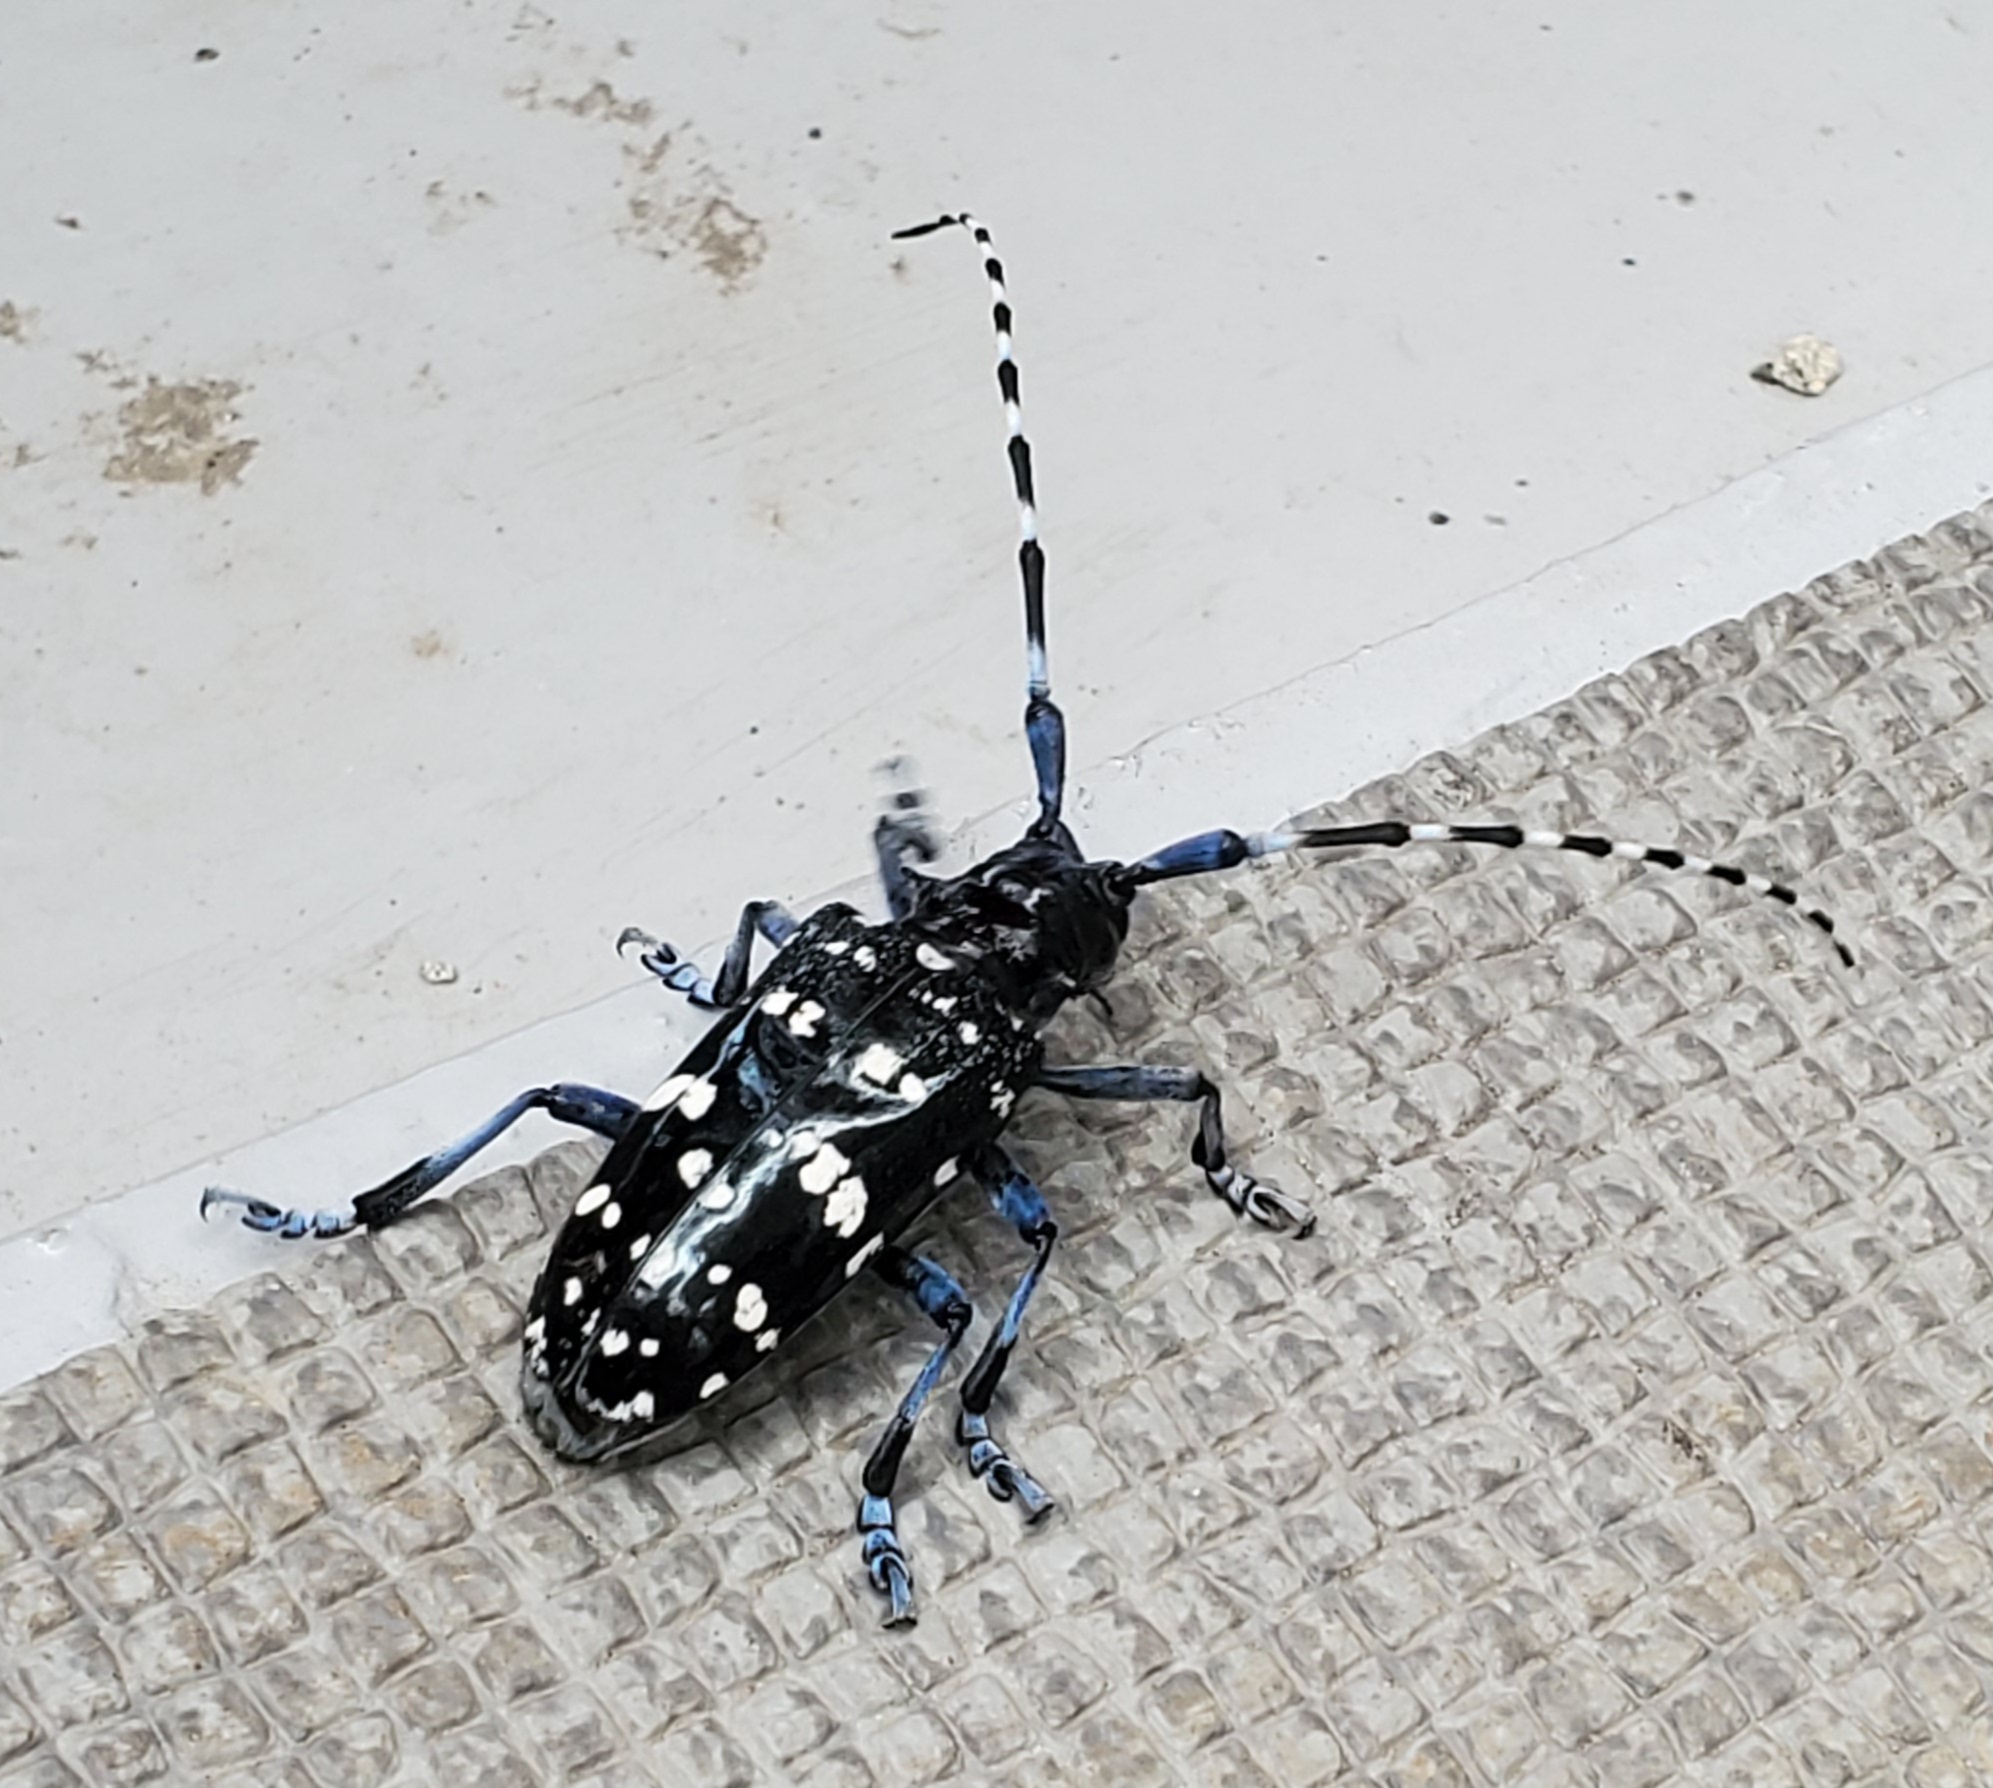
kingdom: Animalia
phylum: Arthropoda
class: Insecta
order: Coleoptera
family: Cerambycidae
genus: Anoplophora
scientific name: Anoplophora chinensis
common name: Citrus longhorned beetle
